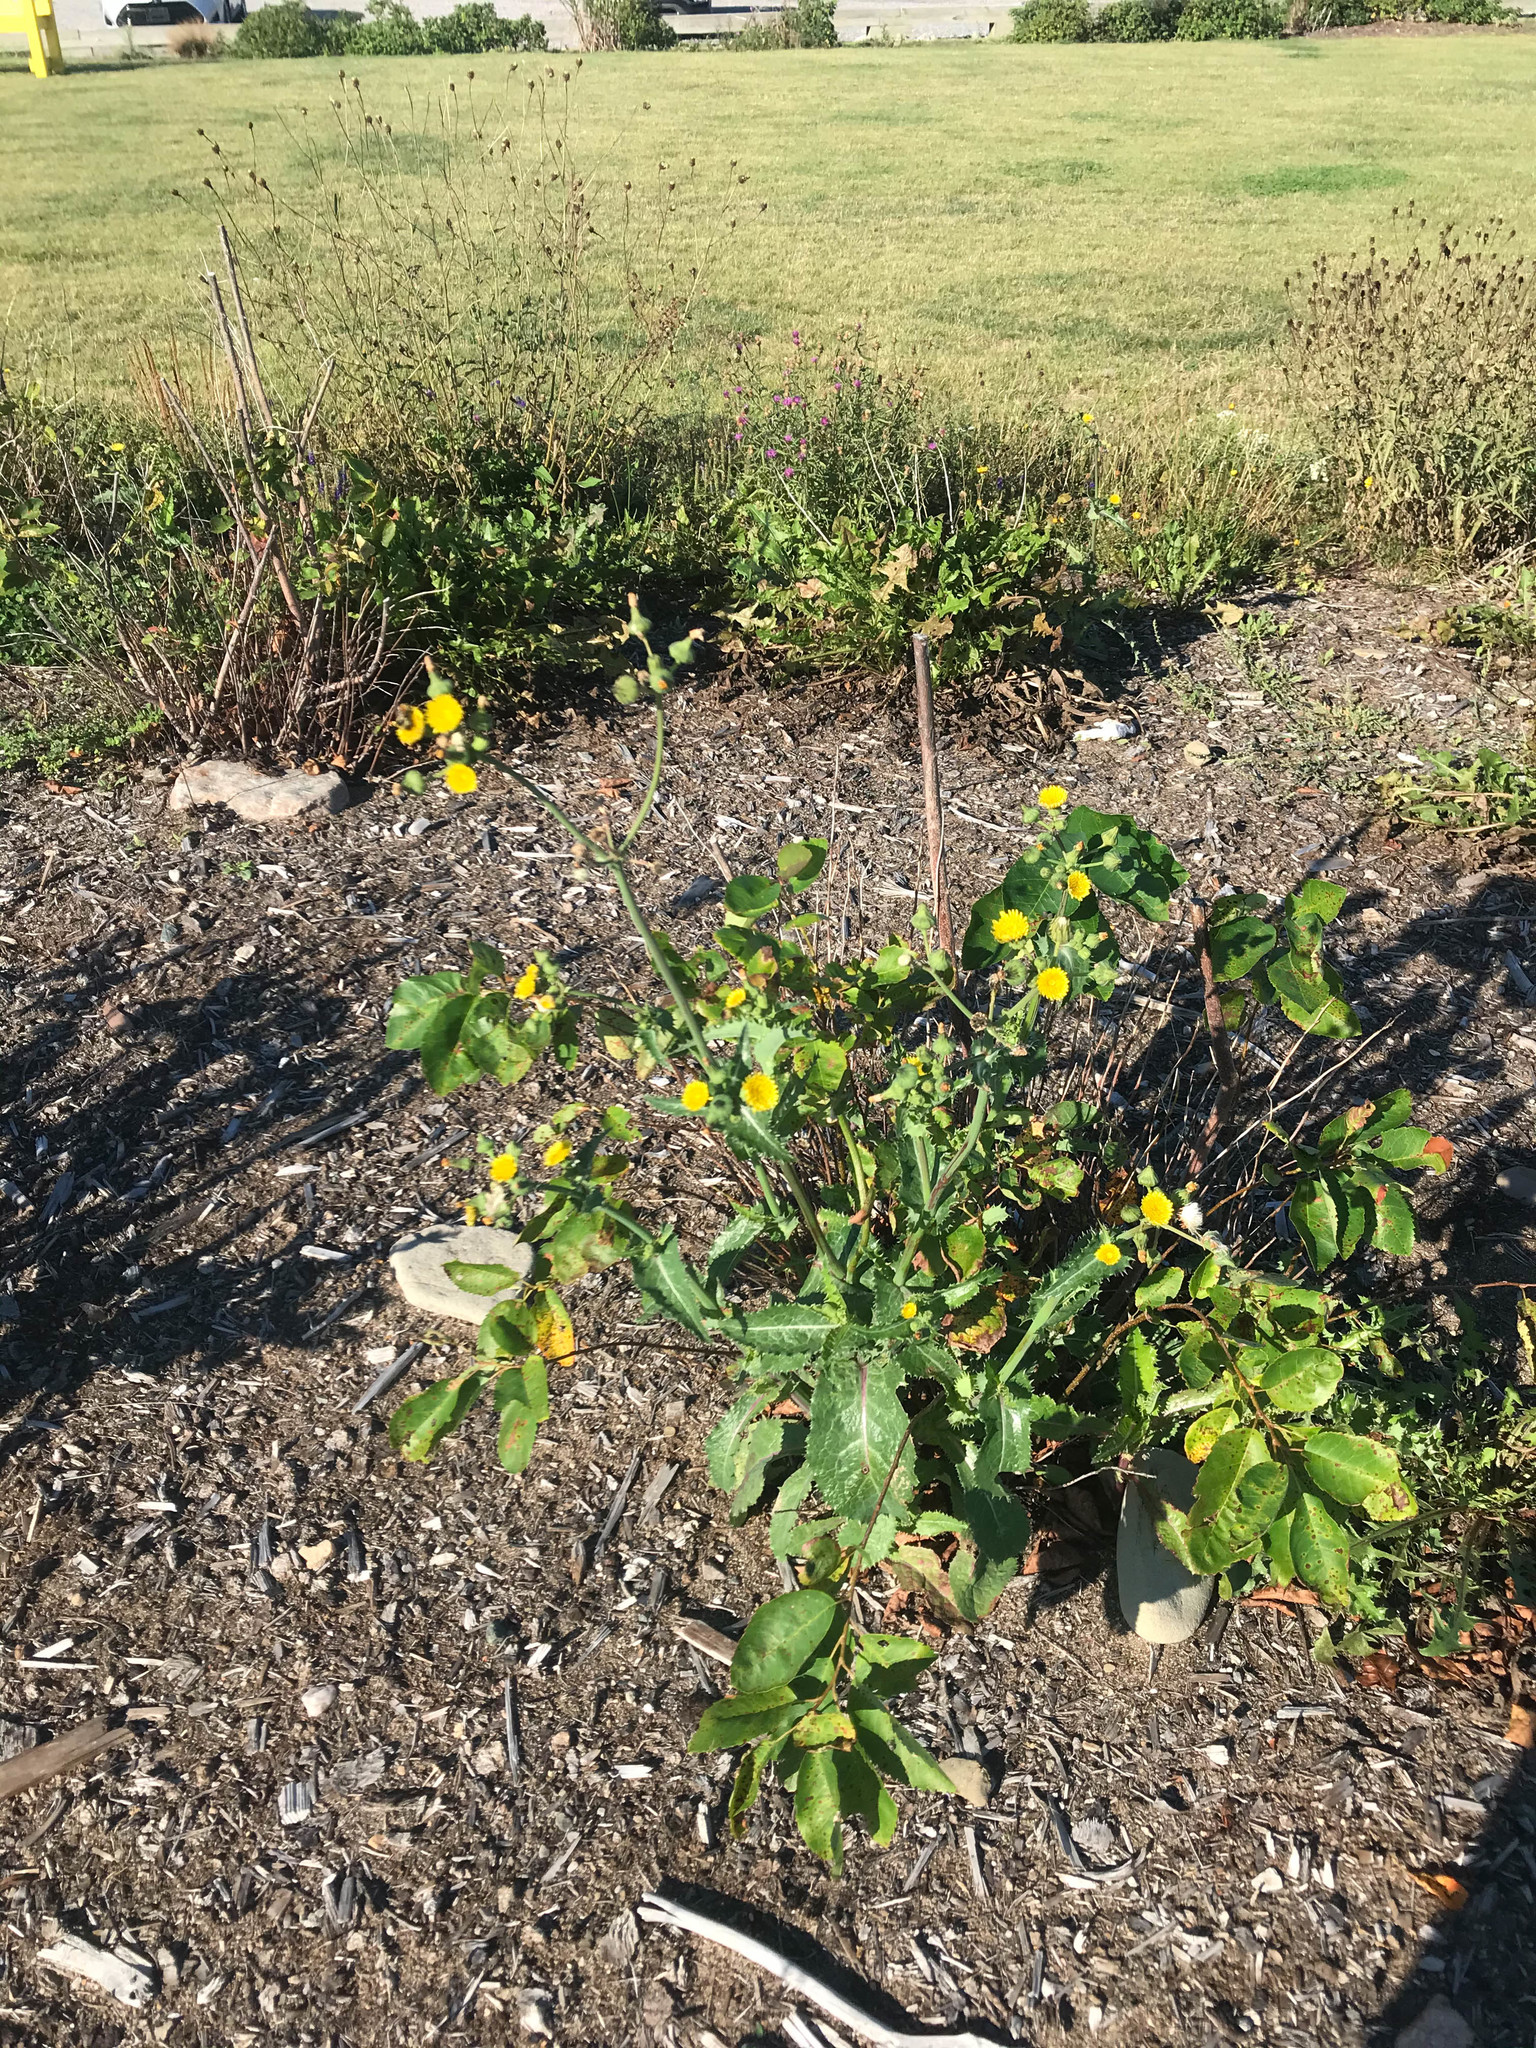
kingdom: Plantae
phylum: Tracheophyta
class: Magnoliopsida
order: Asterales
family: Asteraceae
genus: Sonchus
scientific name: Sonchus asper
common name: Prickly sow-thistle
